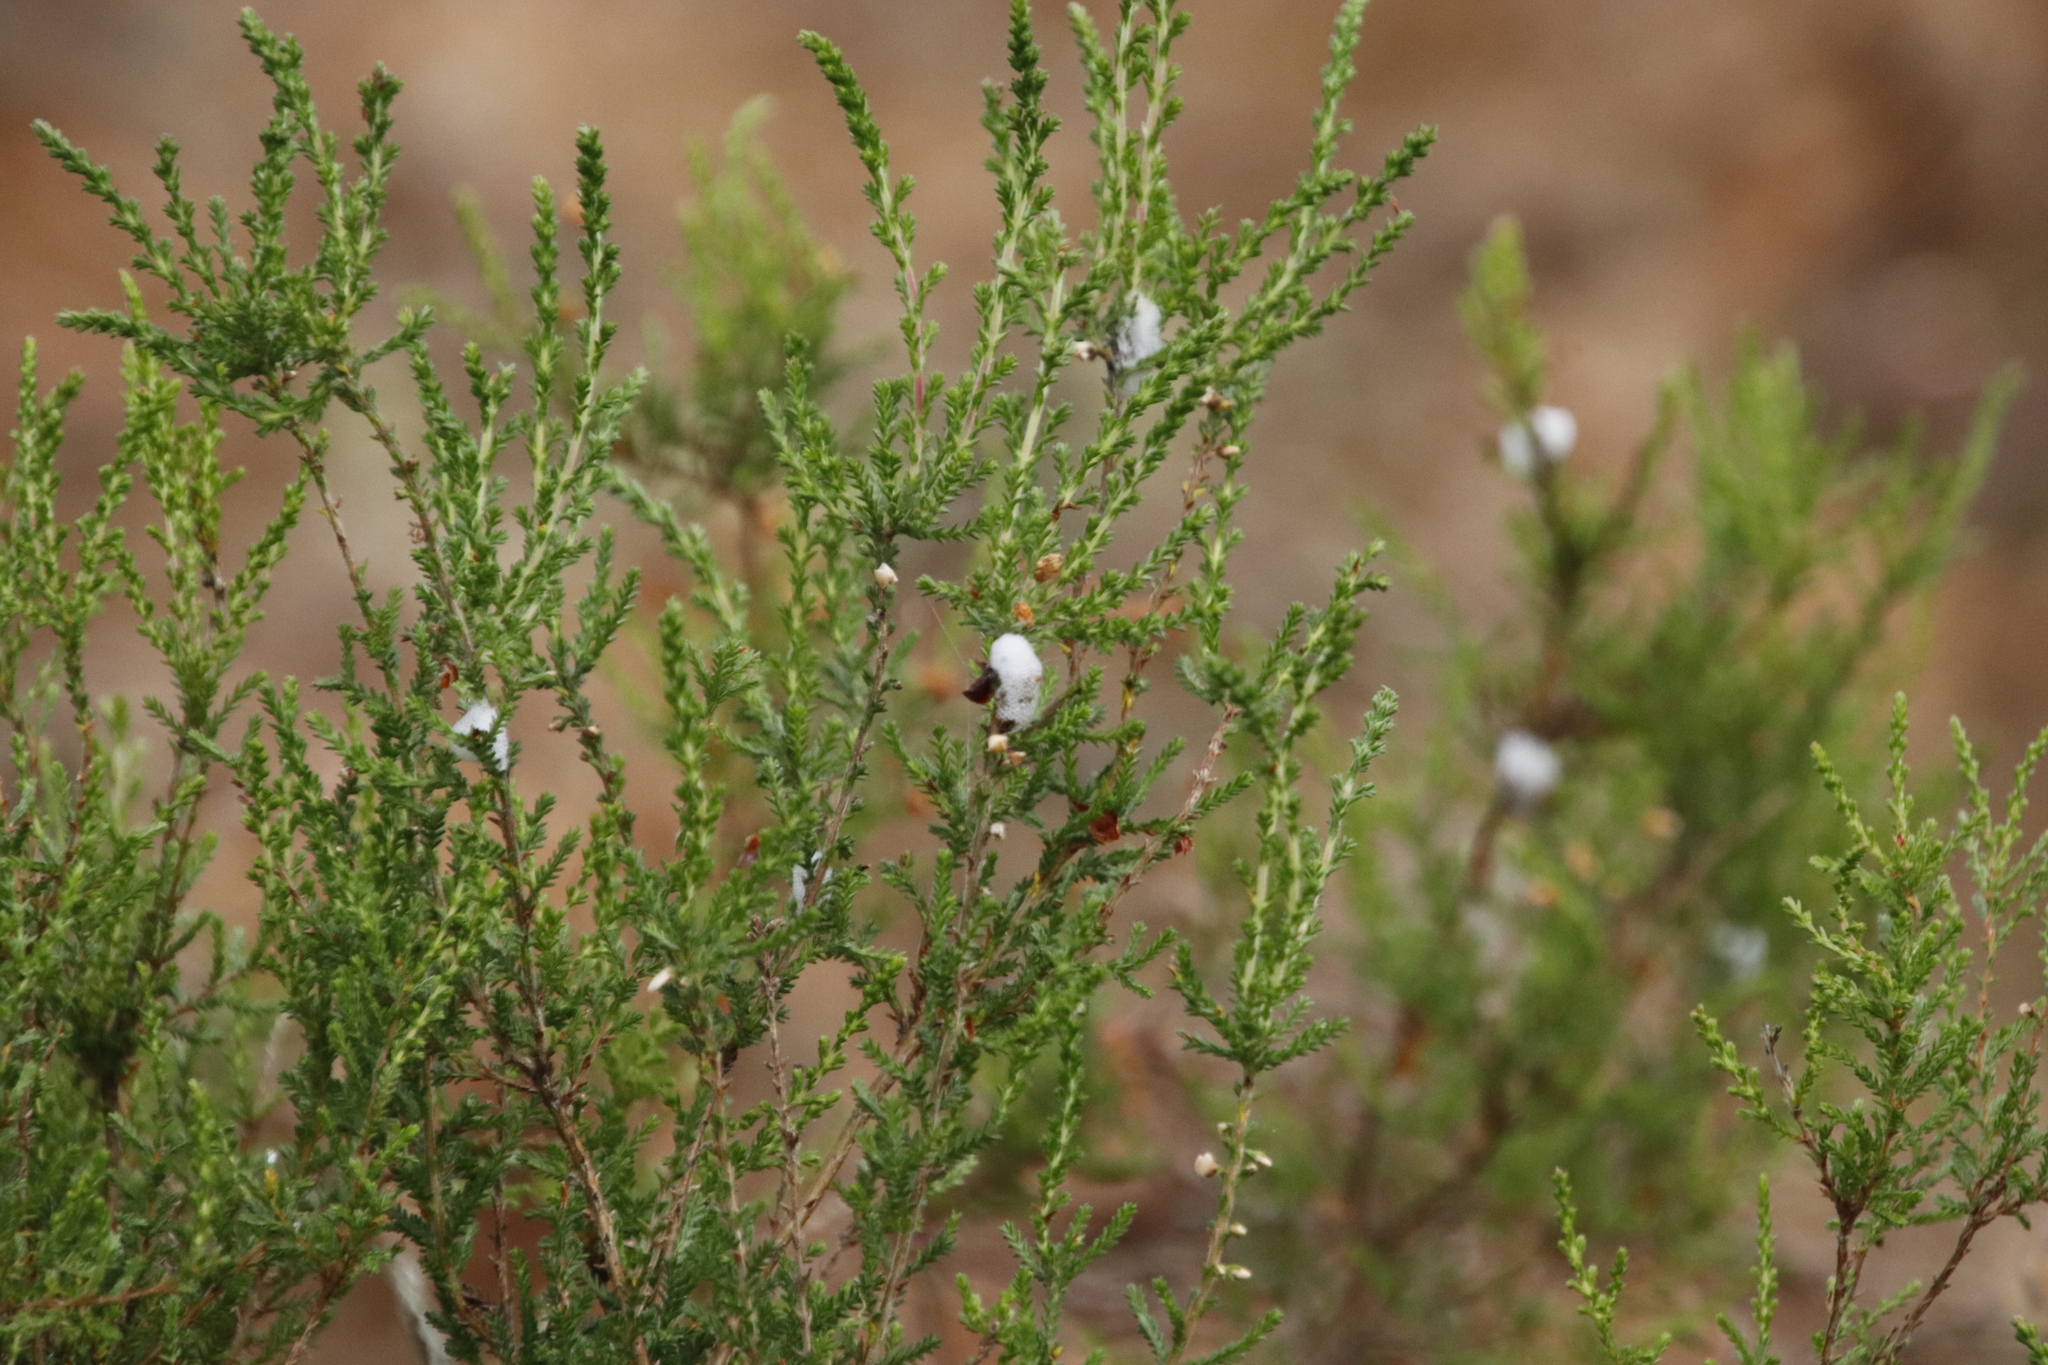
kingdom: Plantae
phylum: Tracheophyta
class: Magnoliopsida
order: Ericales
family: Ericaceae
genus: Calluna
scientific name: Calluna vulgaris
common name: Heather
